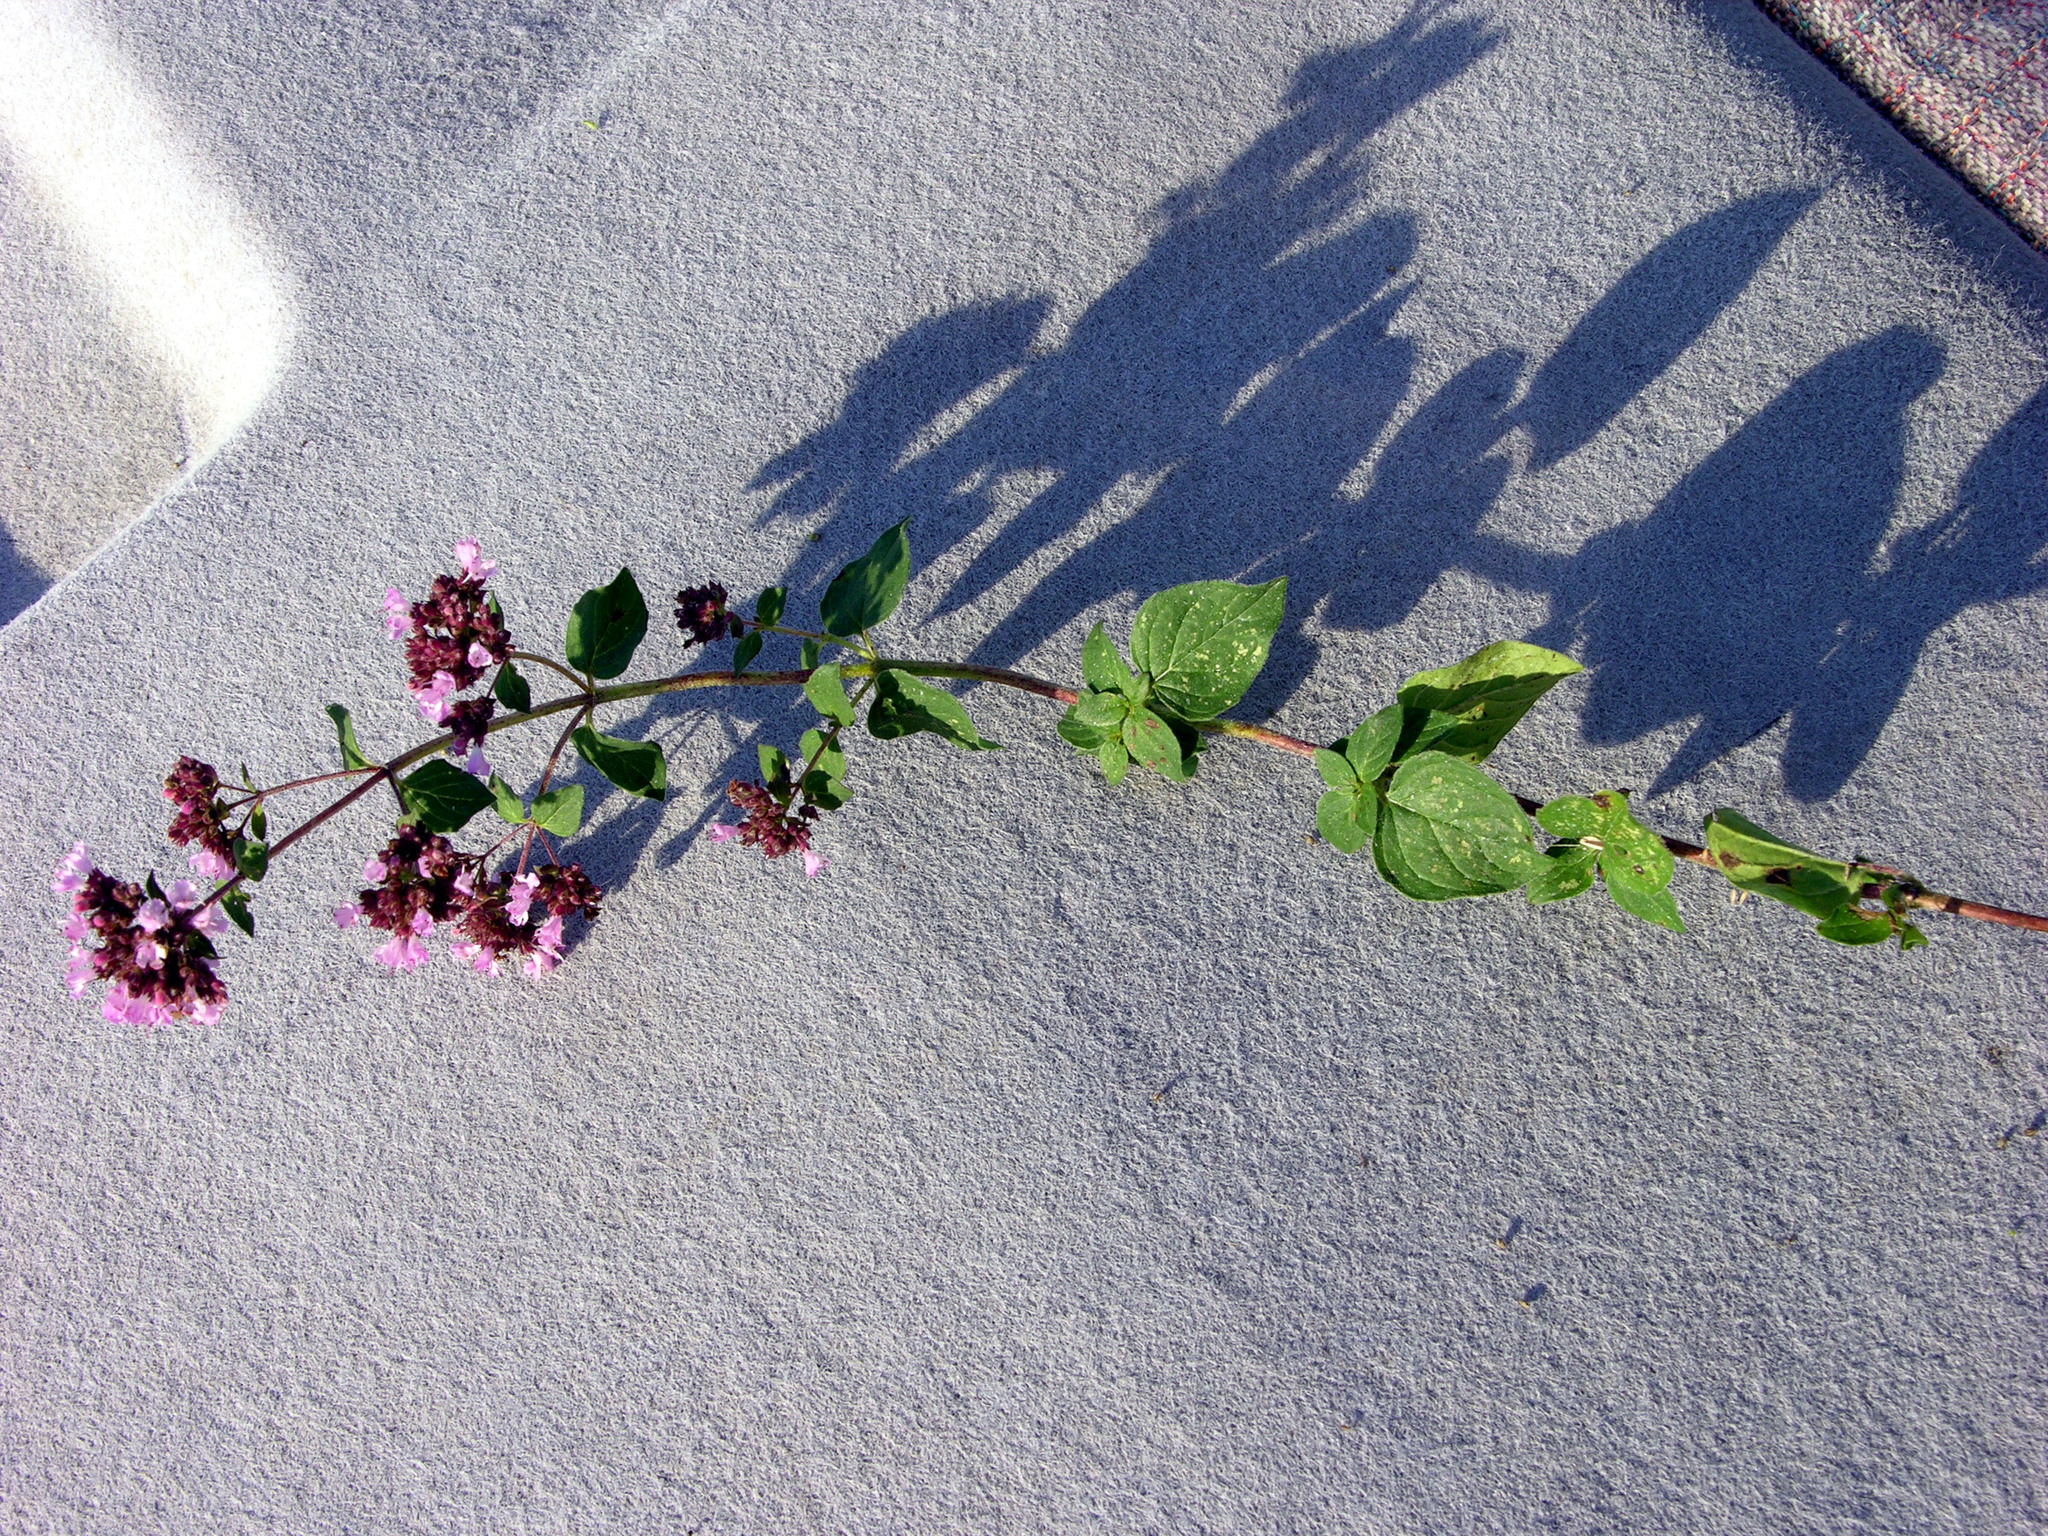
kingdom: Plantae
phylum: Tracheophyta
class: Magnoliopsida
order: Lamiales
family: Lamiaceae
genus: Origanum
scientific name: Origanum vulgare
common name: Wild marjoram
